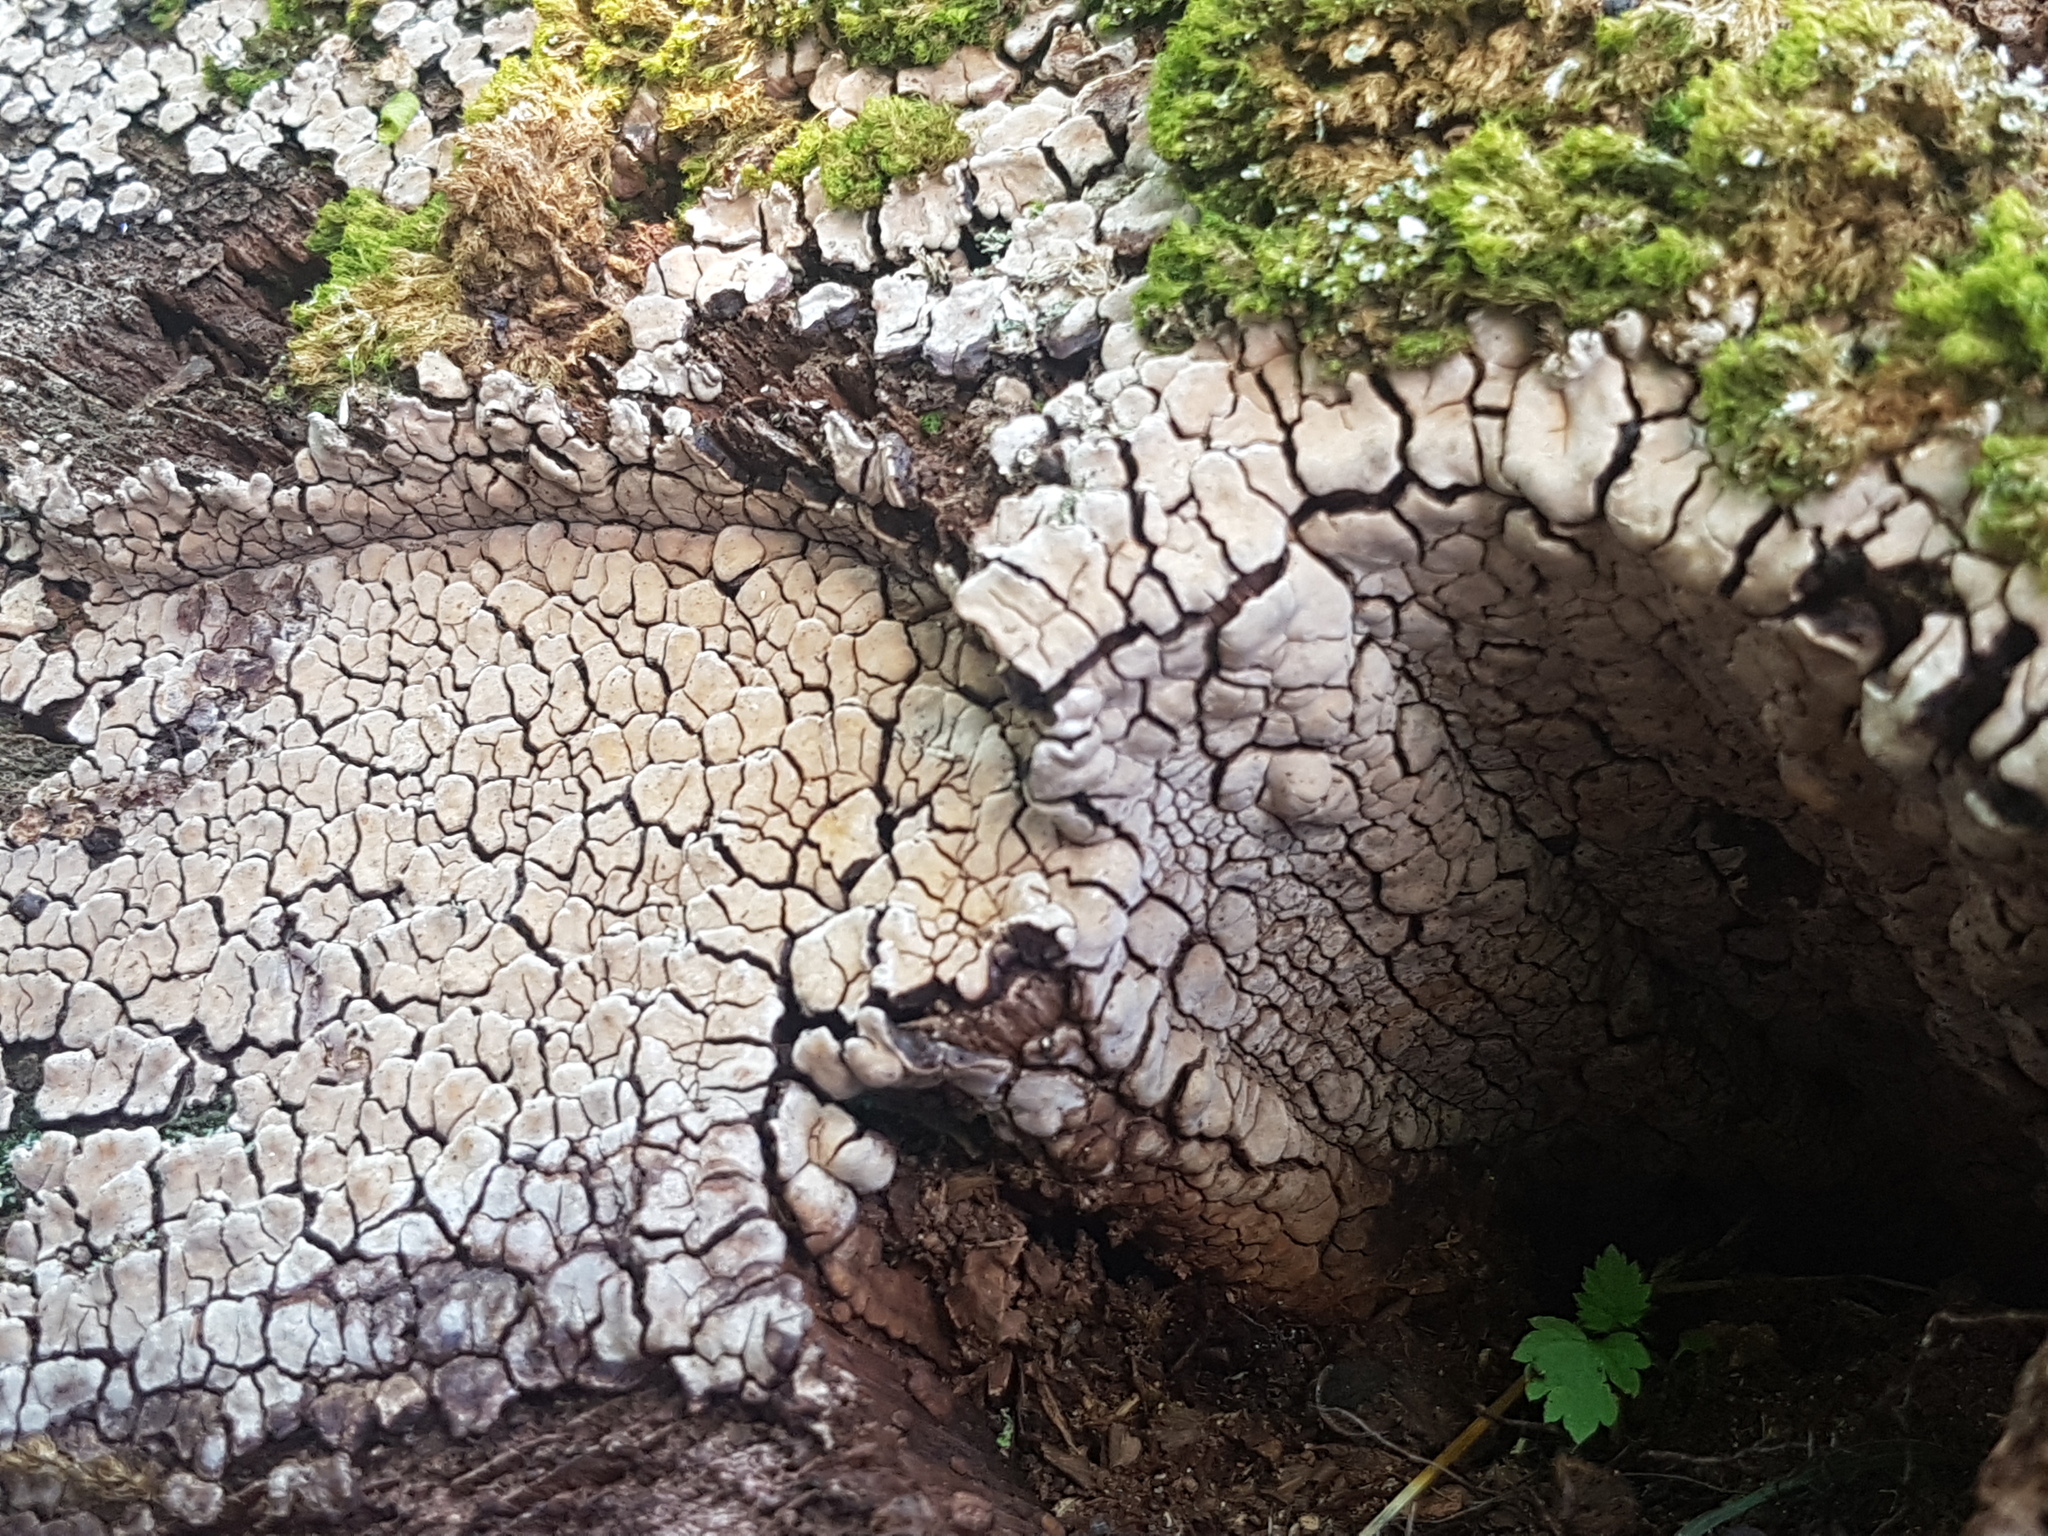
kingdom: Fungi
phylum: Basidiomycota
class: Agaricomycetes
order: Russulales
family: Stereaceae
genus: Xylobolus
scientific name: Xylobolus frustulatus
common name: Ceramic parchment
